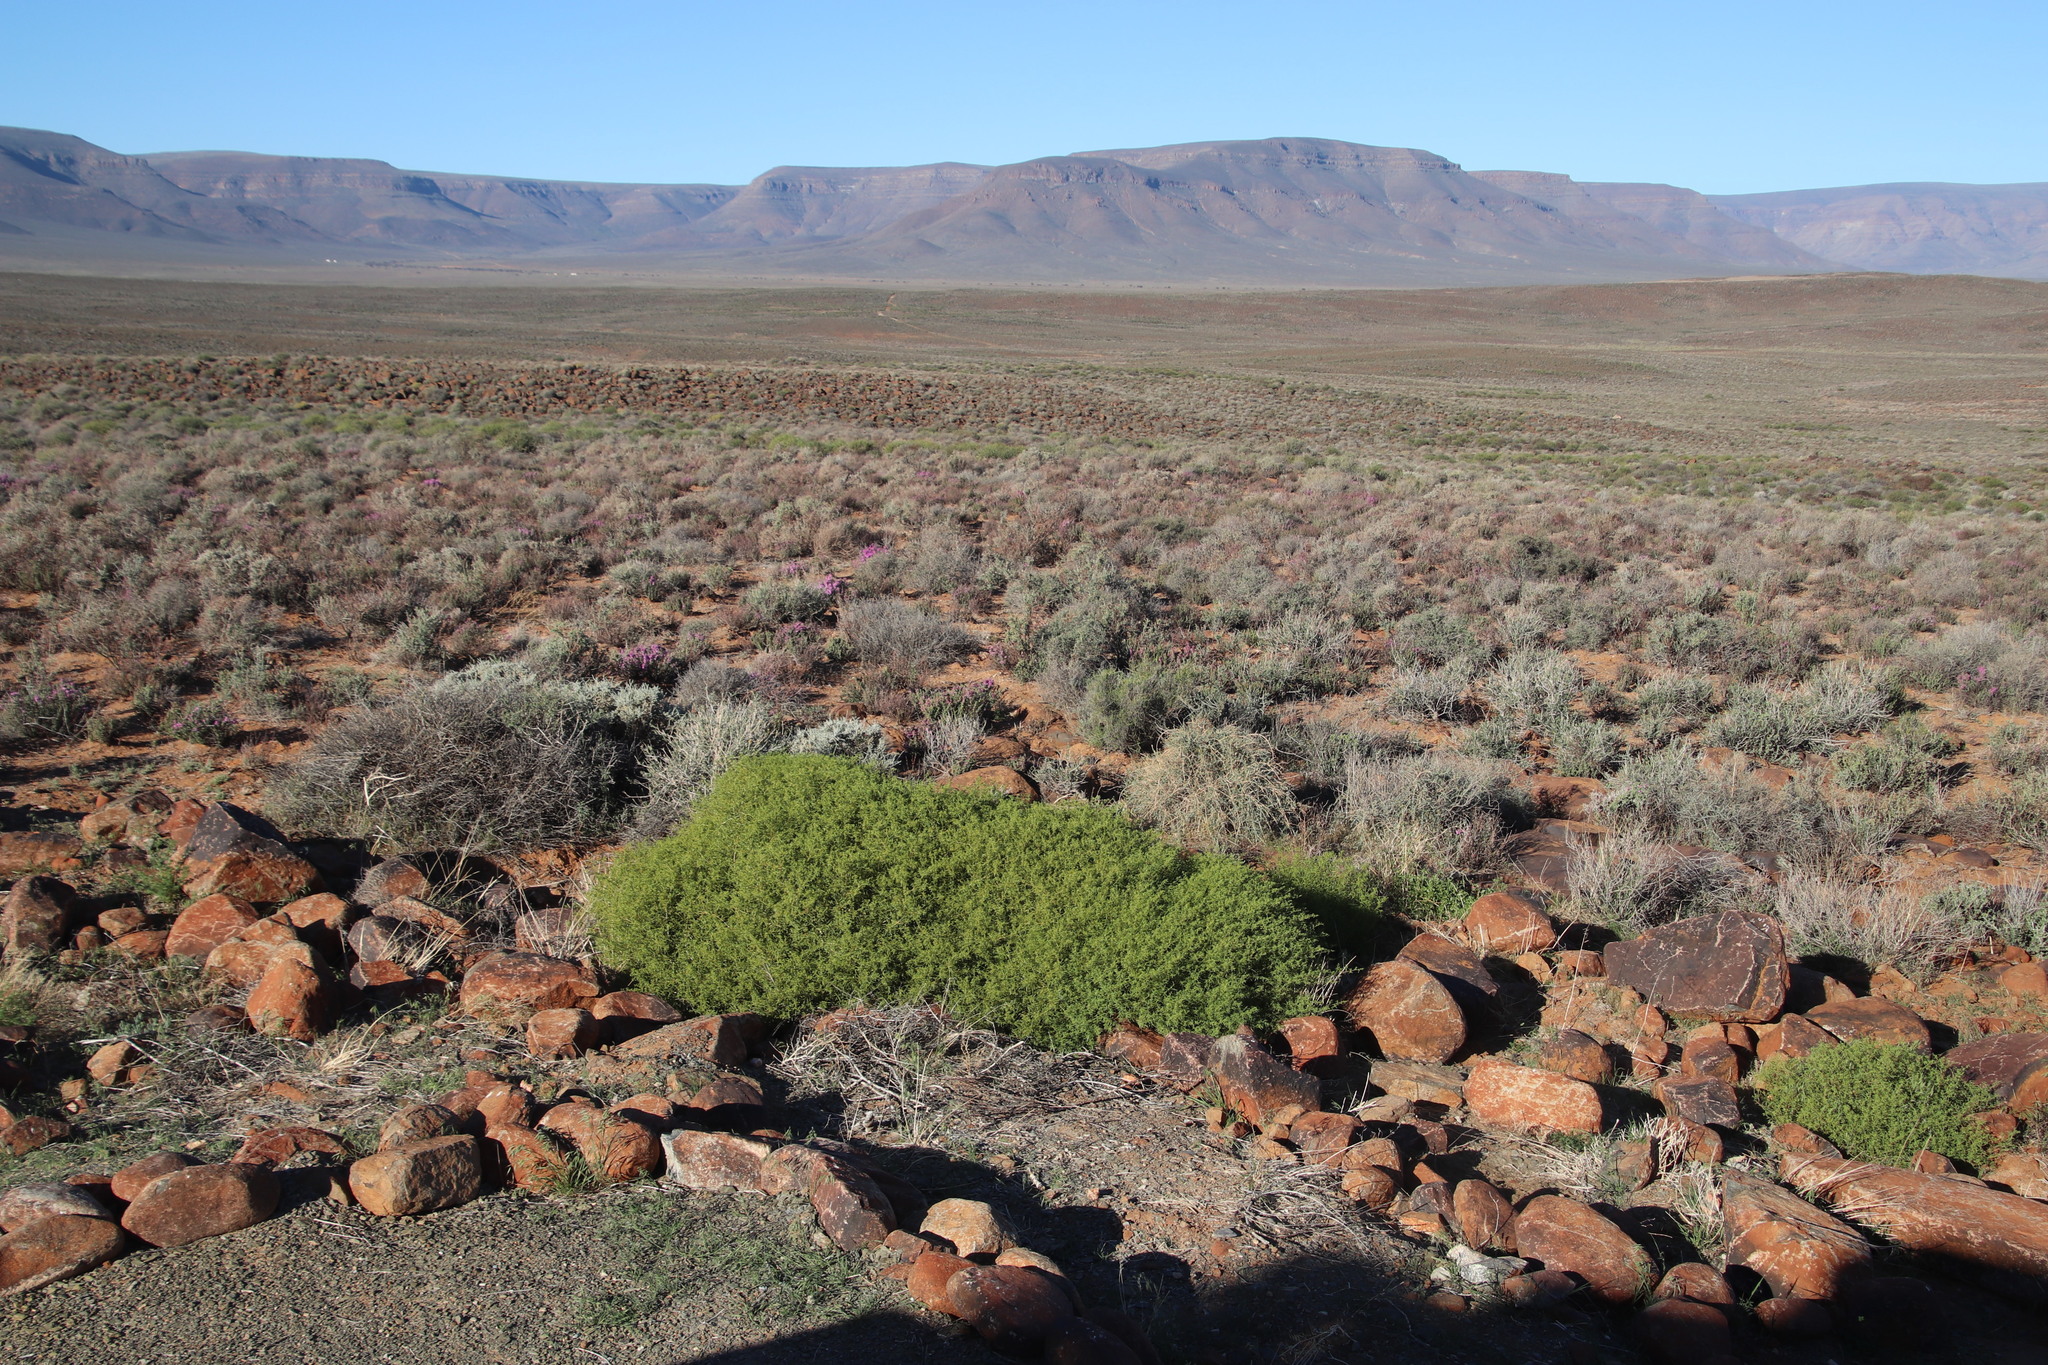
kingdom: Plantae
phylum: Tracheophyta
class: Magnoliopsida
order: Caryophyllales
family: Aizoaceae
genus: Aizoon
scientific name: Aizoon africanum
